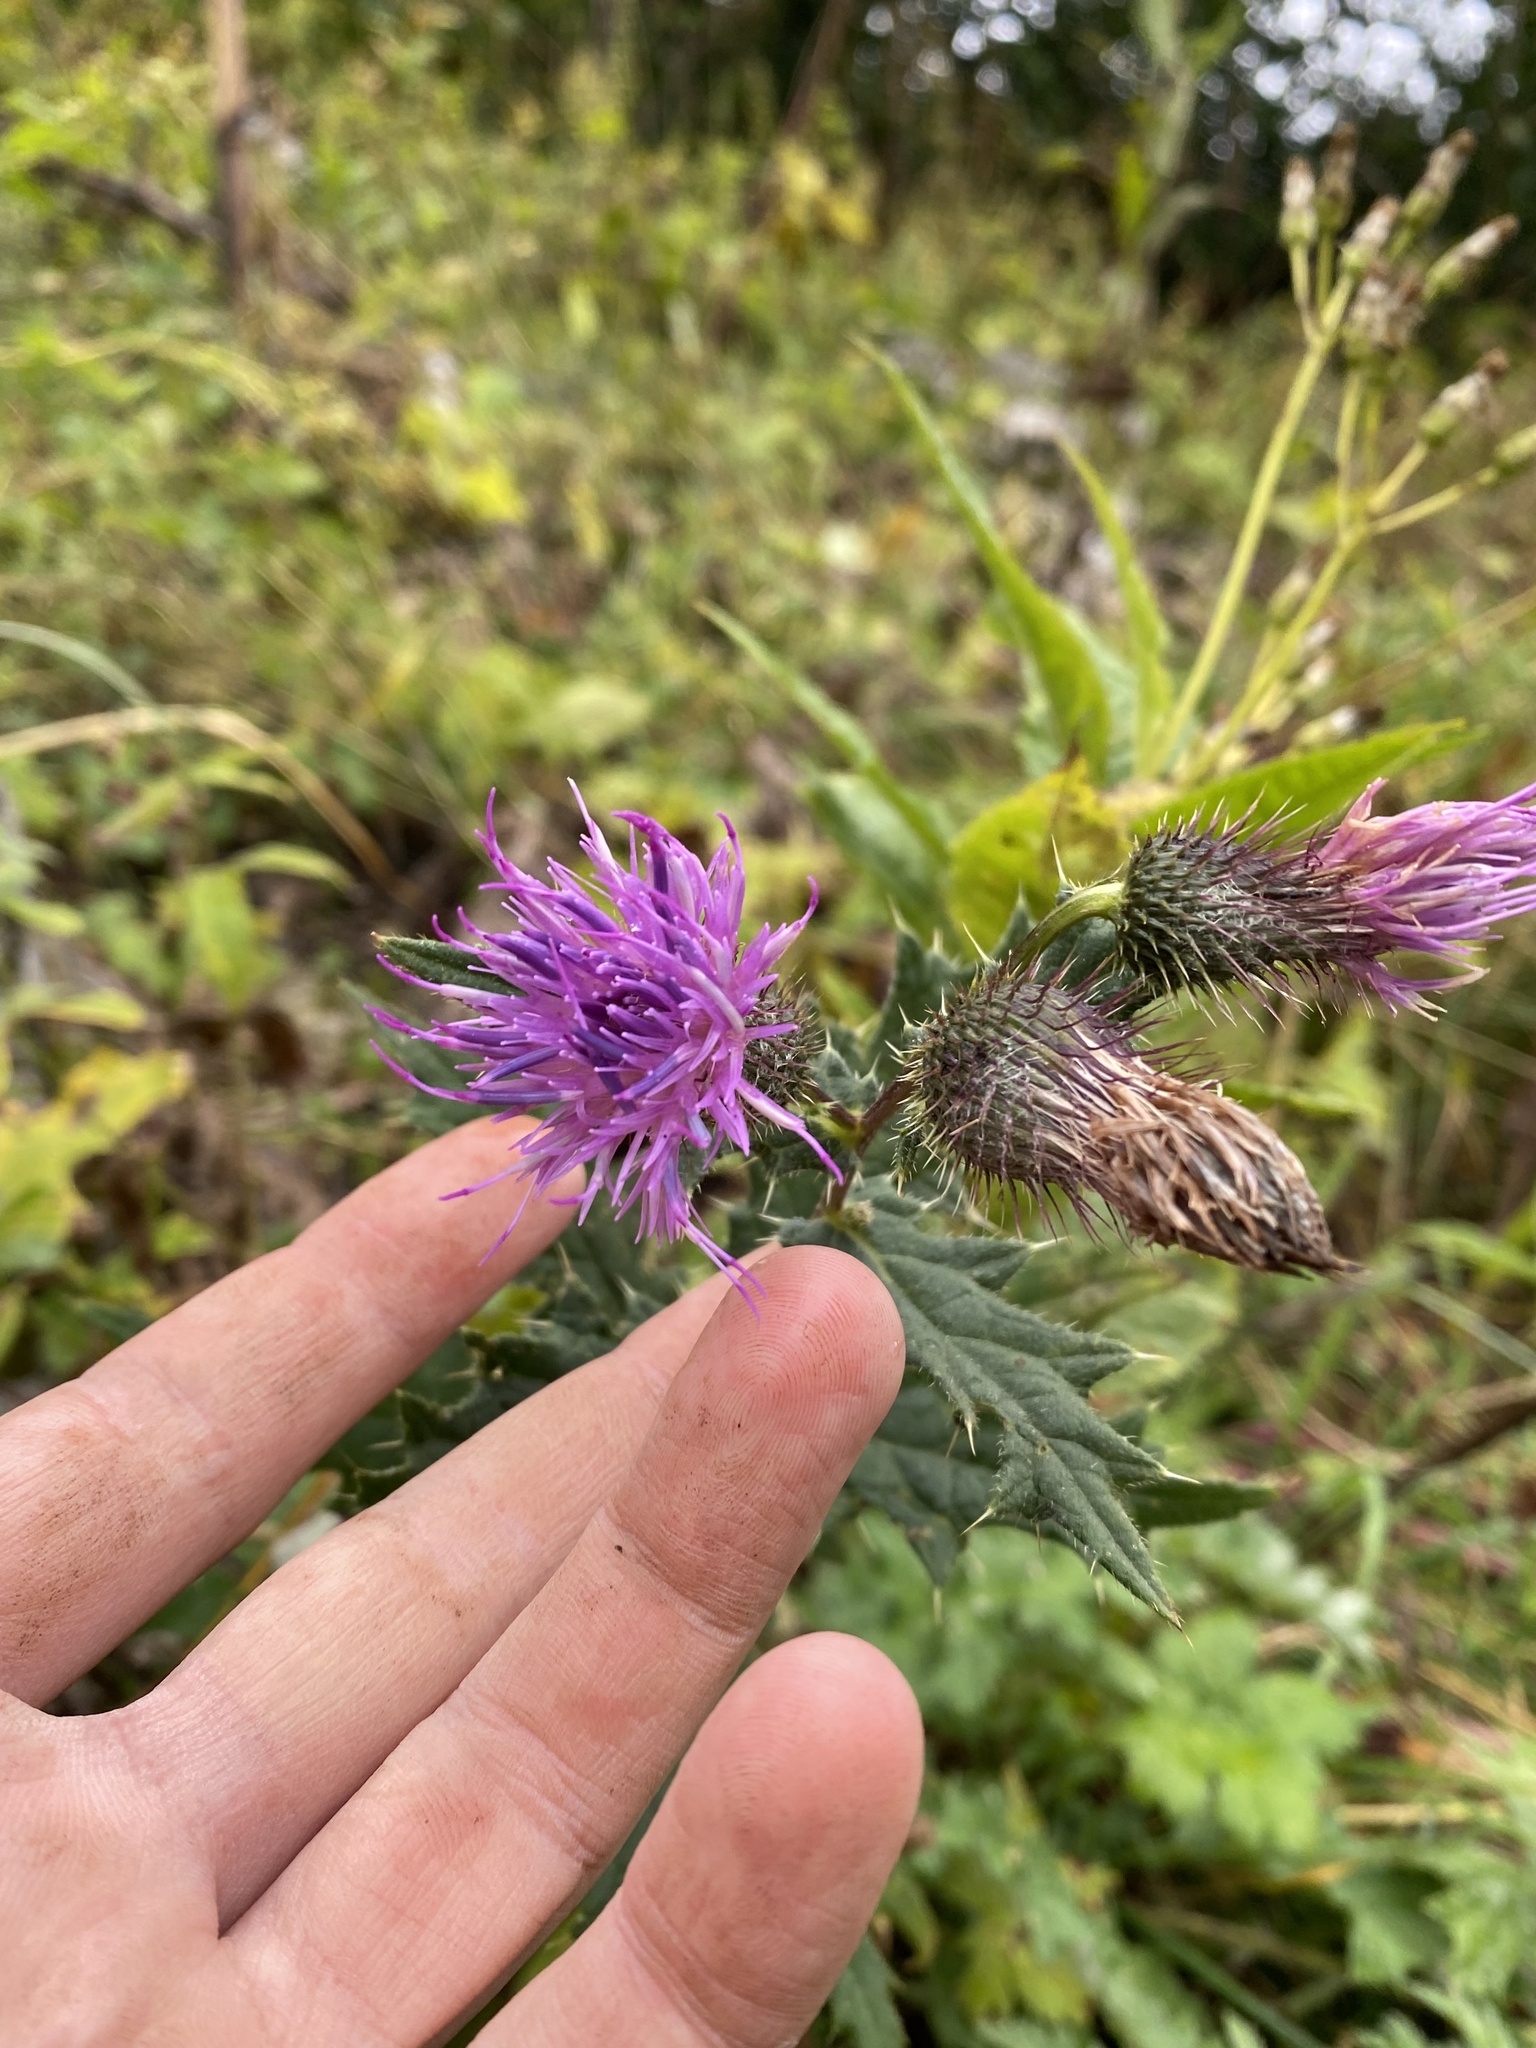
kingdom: Plantae
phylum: Tracheophyta
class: Magnoliopsida
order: Asterales
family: Asteraceae
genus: Lophiolepis
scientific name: Lophiolepis czerkessica
